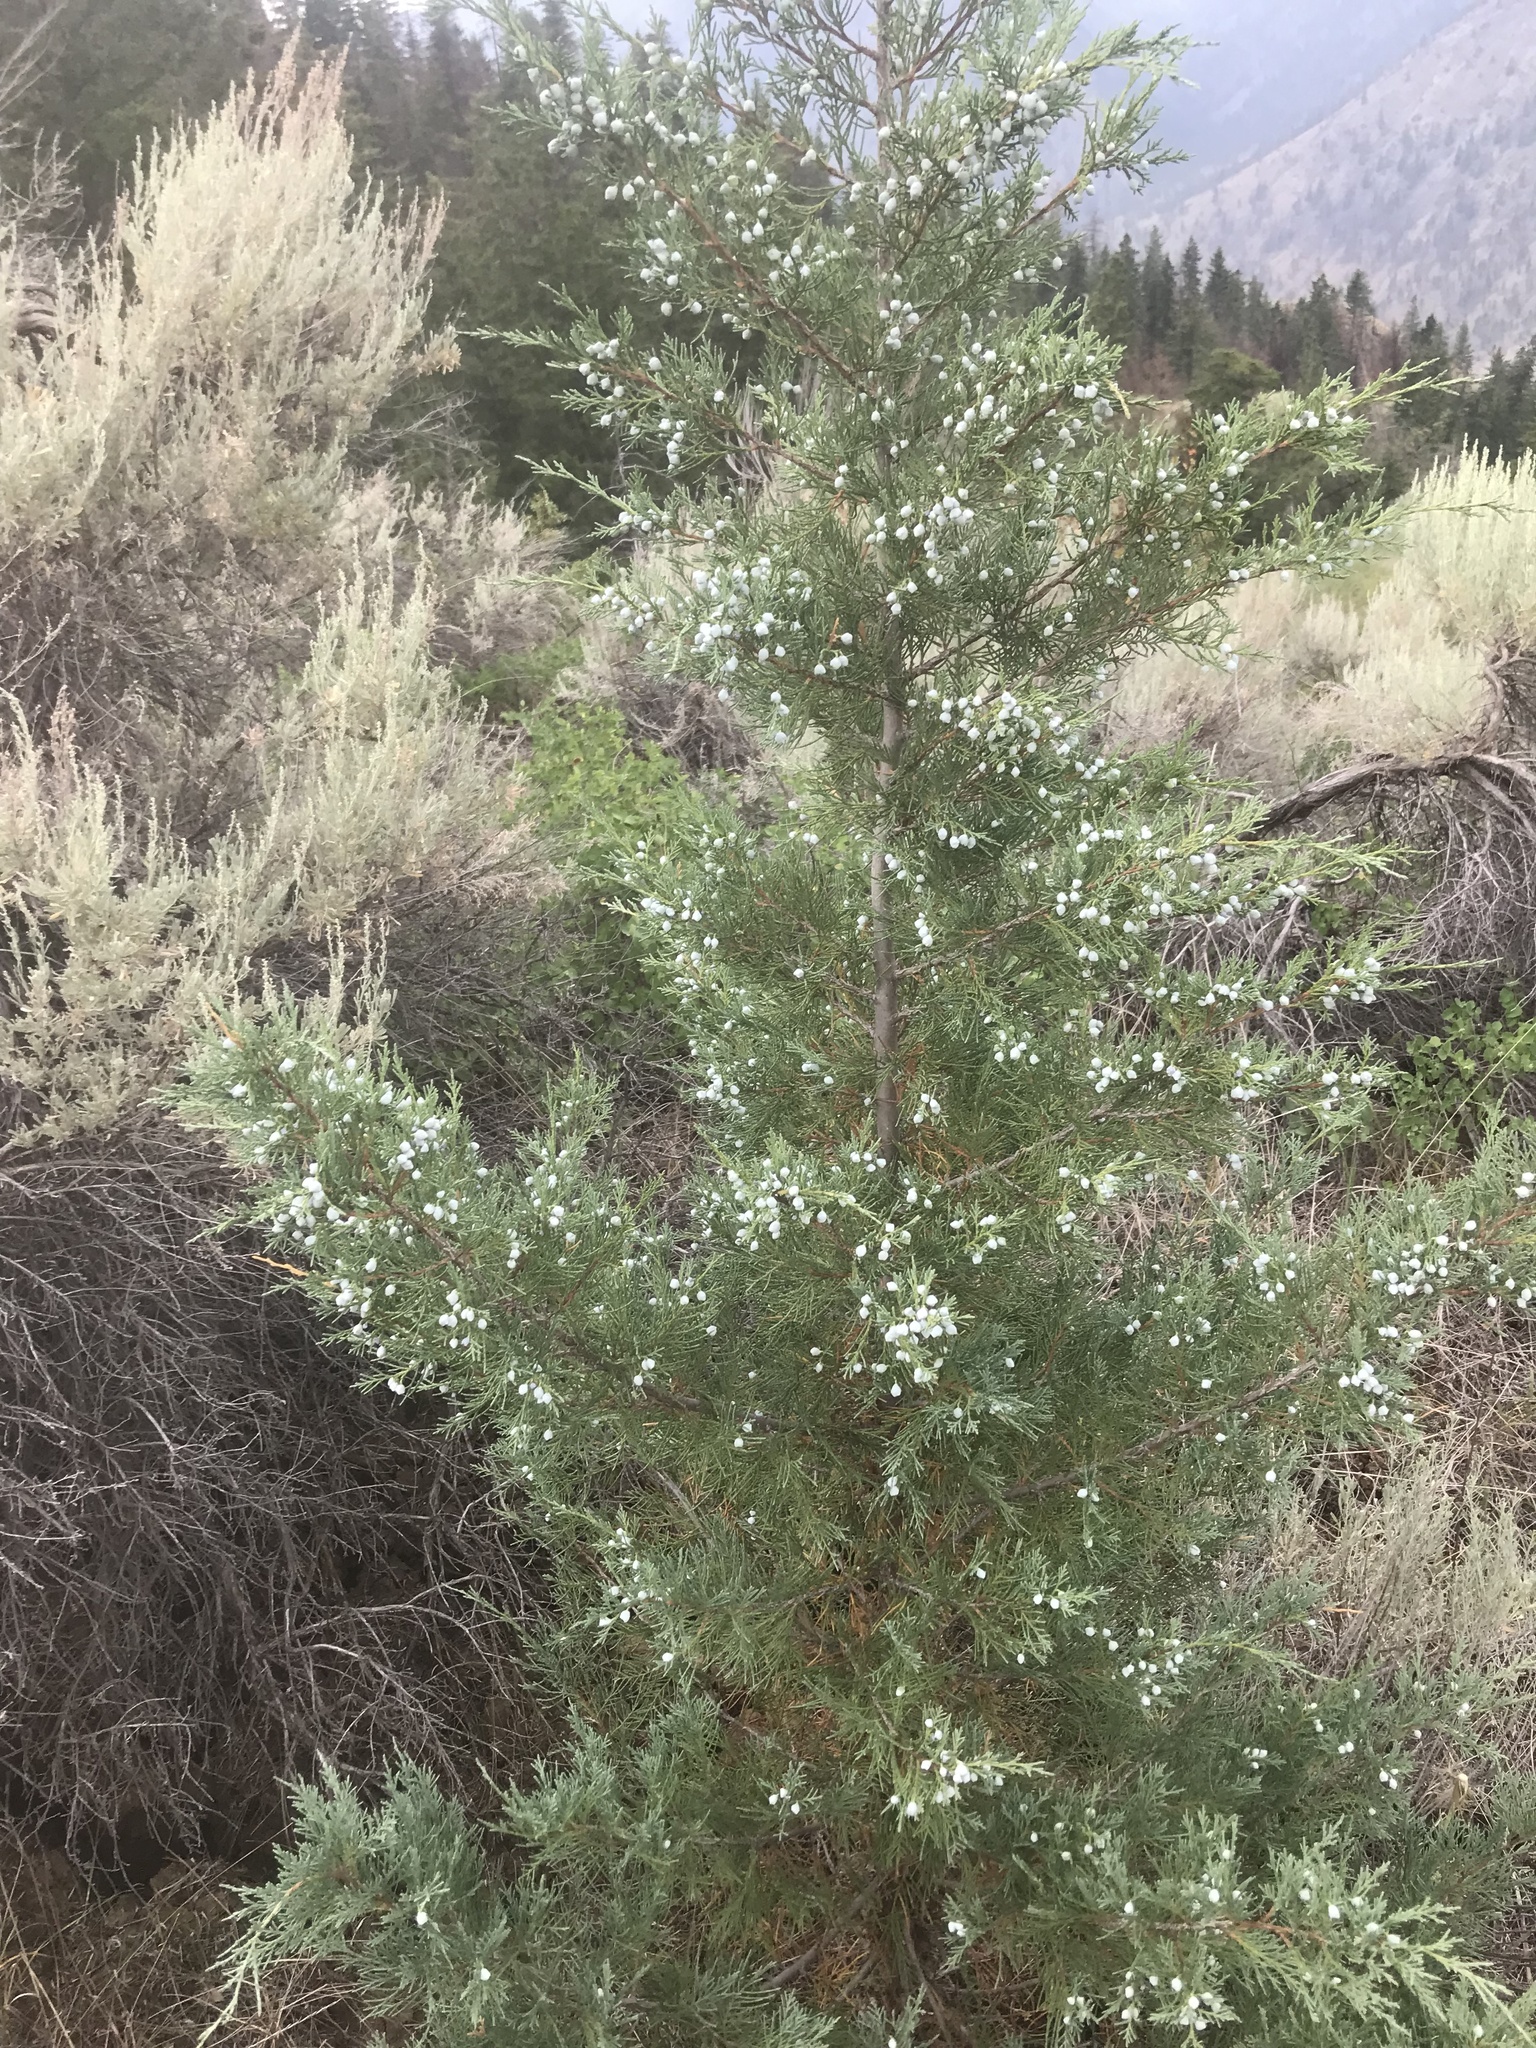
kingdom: Plantae
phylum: Tracheophyta
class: Pinopsida
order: Pinales
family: Cupressaceae
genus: Juniperus
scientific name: Juniperus scopulorum
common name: Rocky mountain juniper
